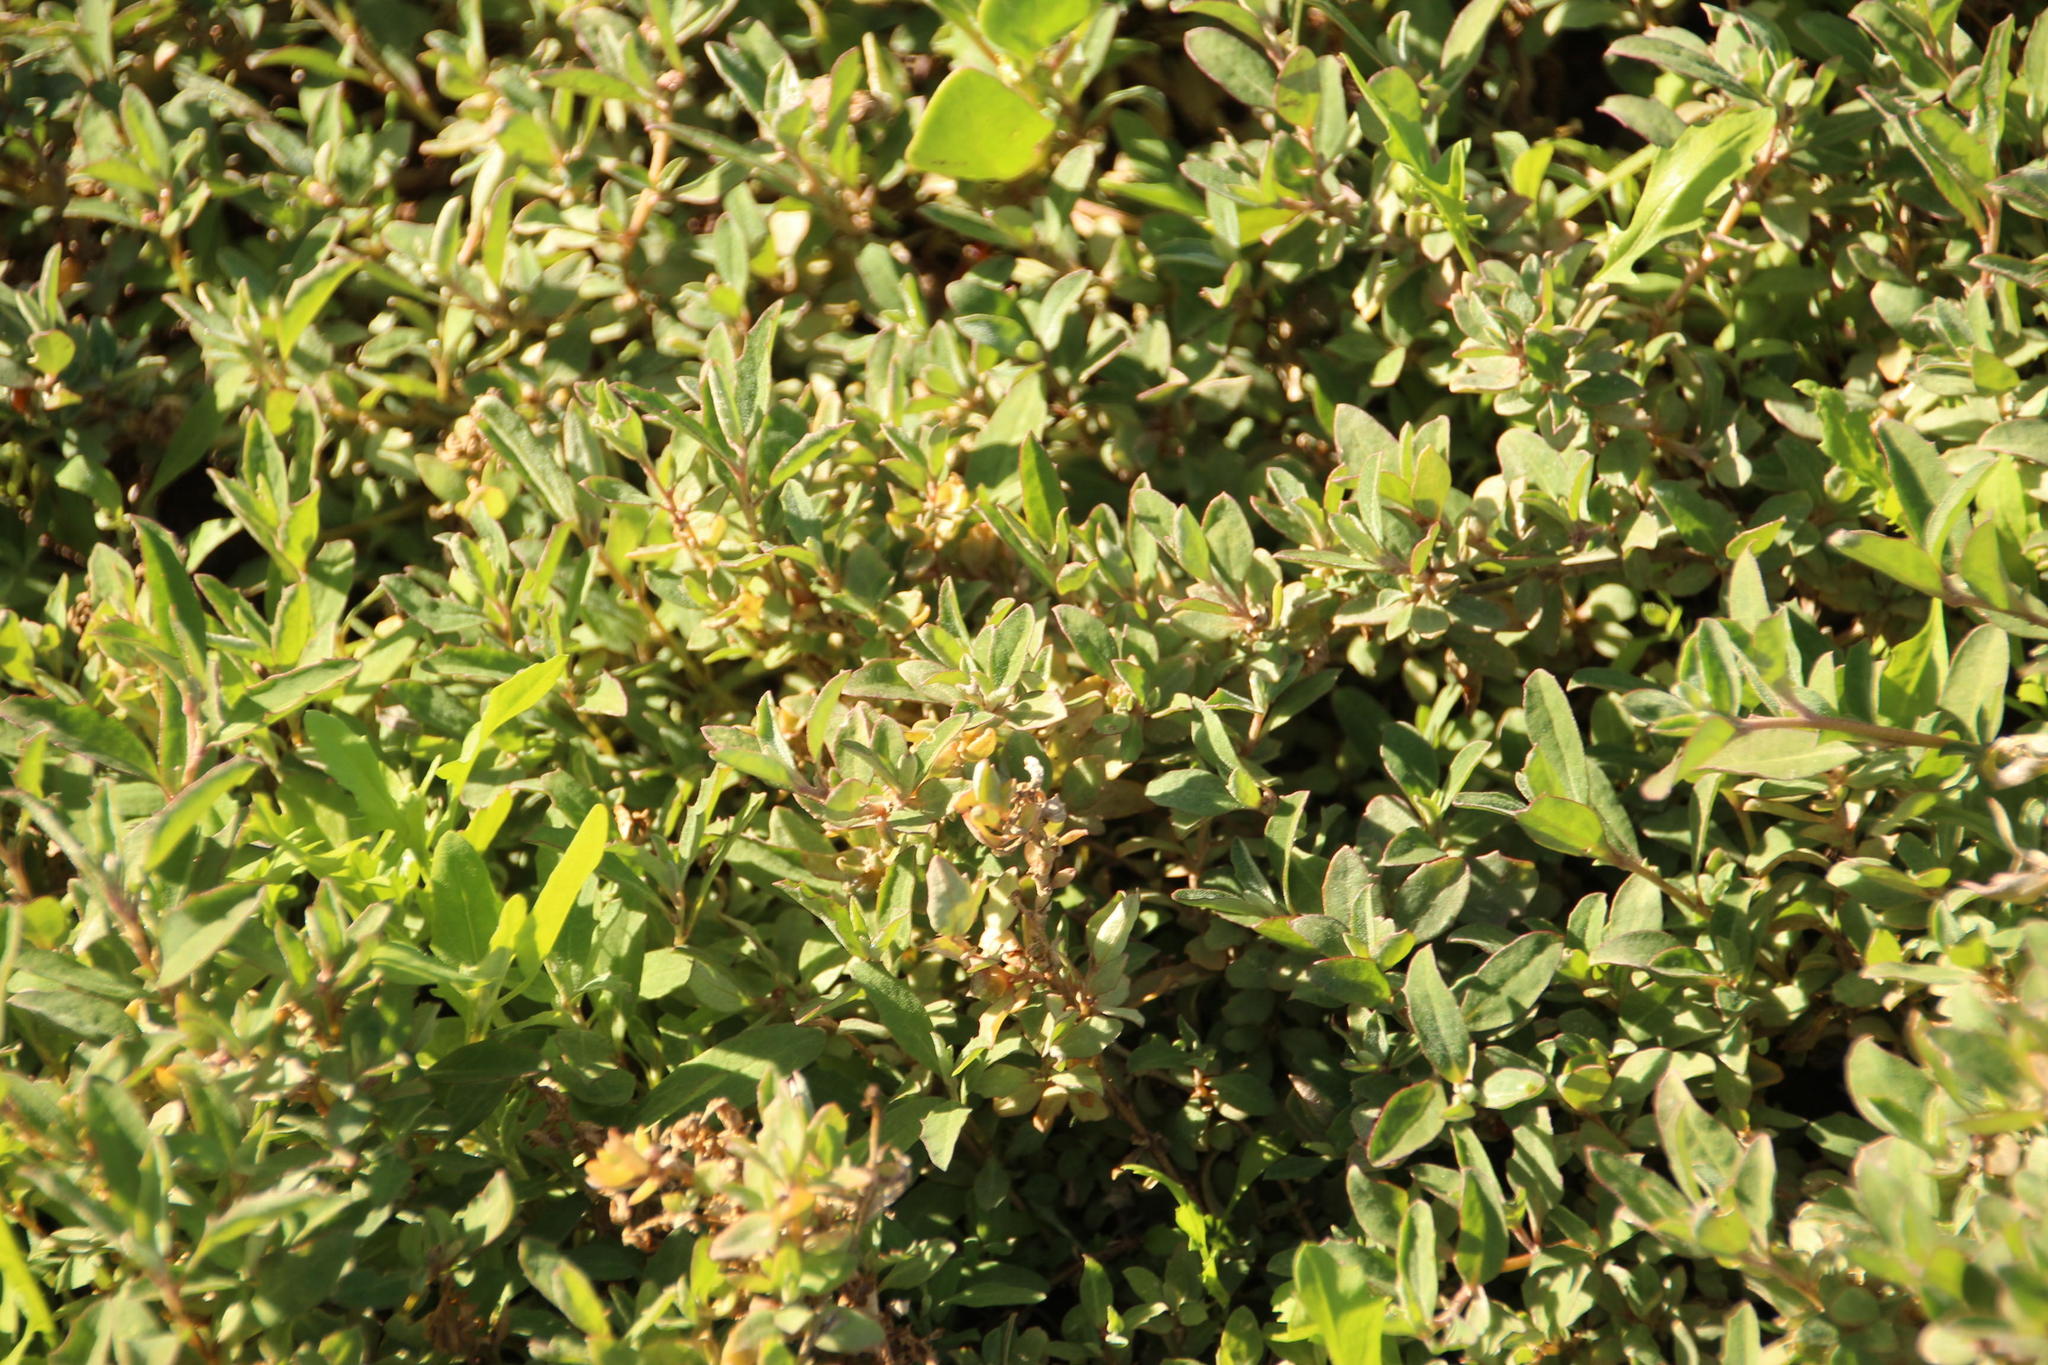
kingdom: Plantae
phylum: Tracheophyta
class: Magnoliopsida
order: Caryophyllales
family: Amaranthaceae
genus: Atriplex
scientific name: Atriplex semibaccata
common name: Australian saltbush
